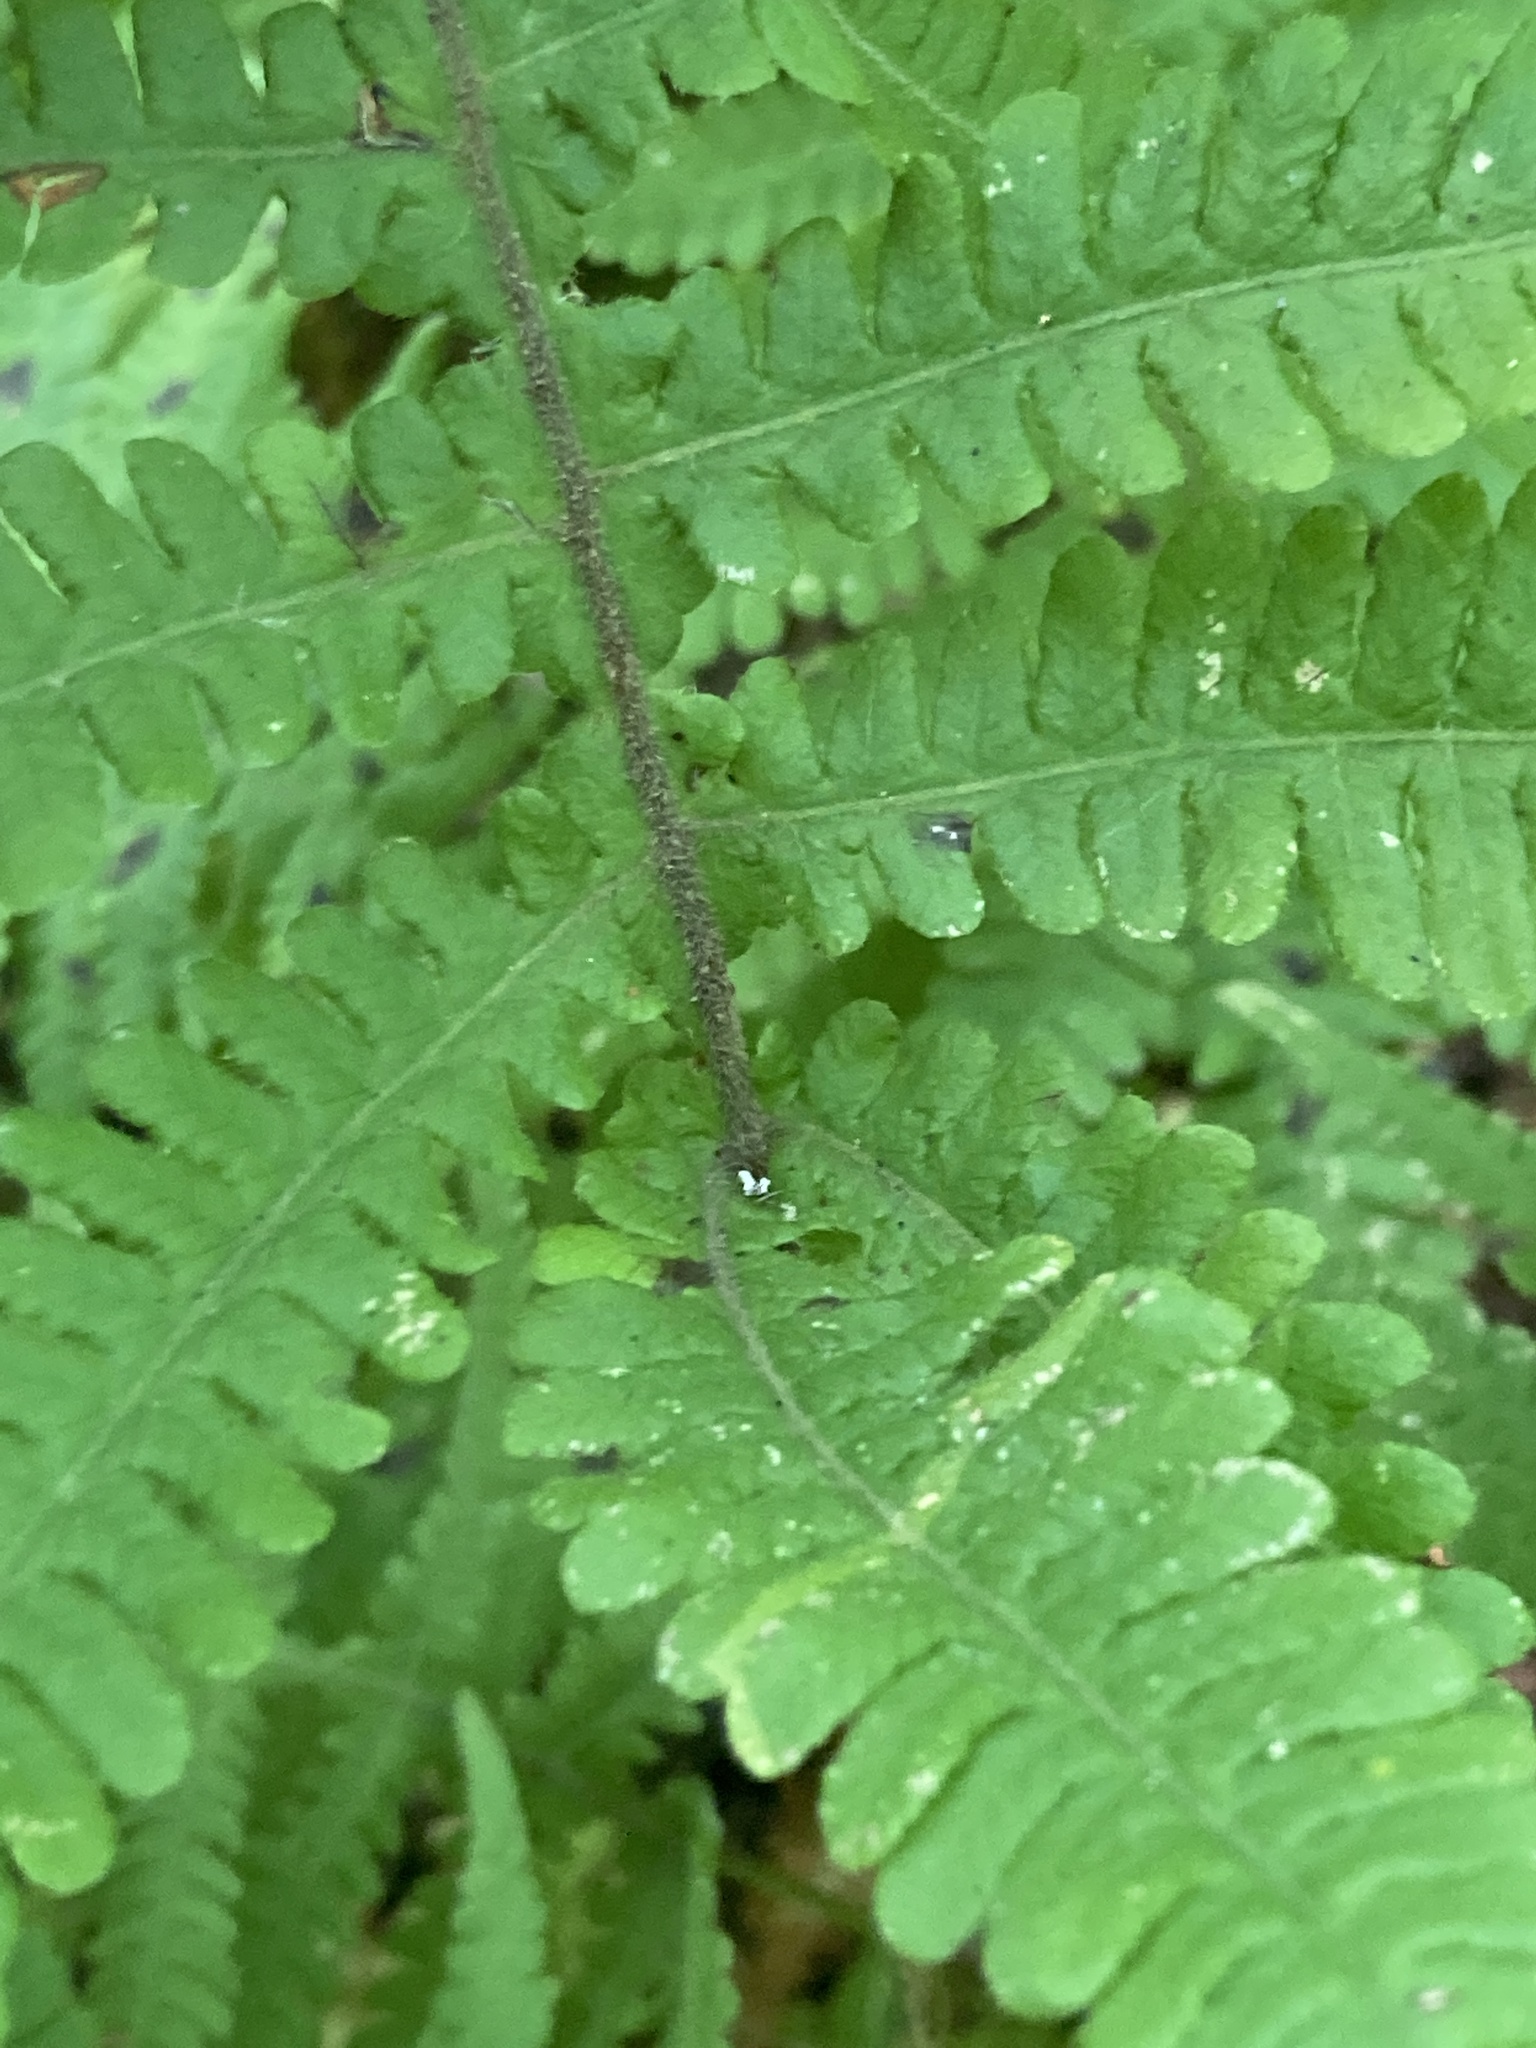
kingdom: Plantae
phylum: Tracheophyta
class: Polypodiopsida
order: Polypodiales
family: Thelypteridaceae
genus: Phegopteris
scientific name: Phegopteris connectilis
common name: Beech fern
